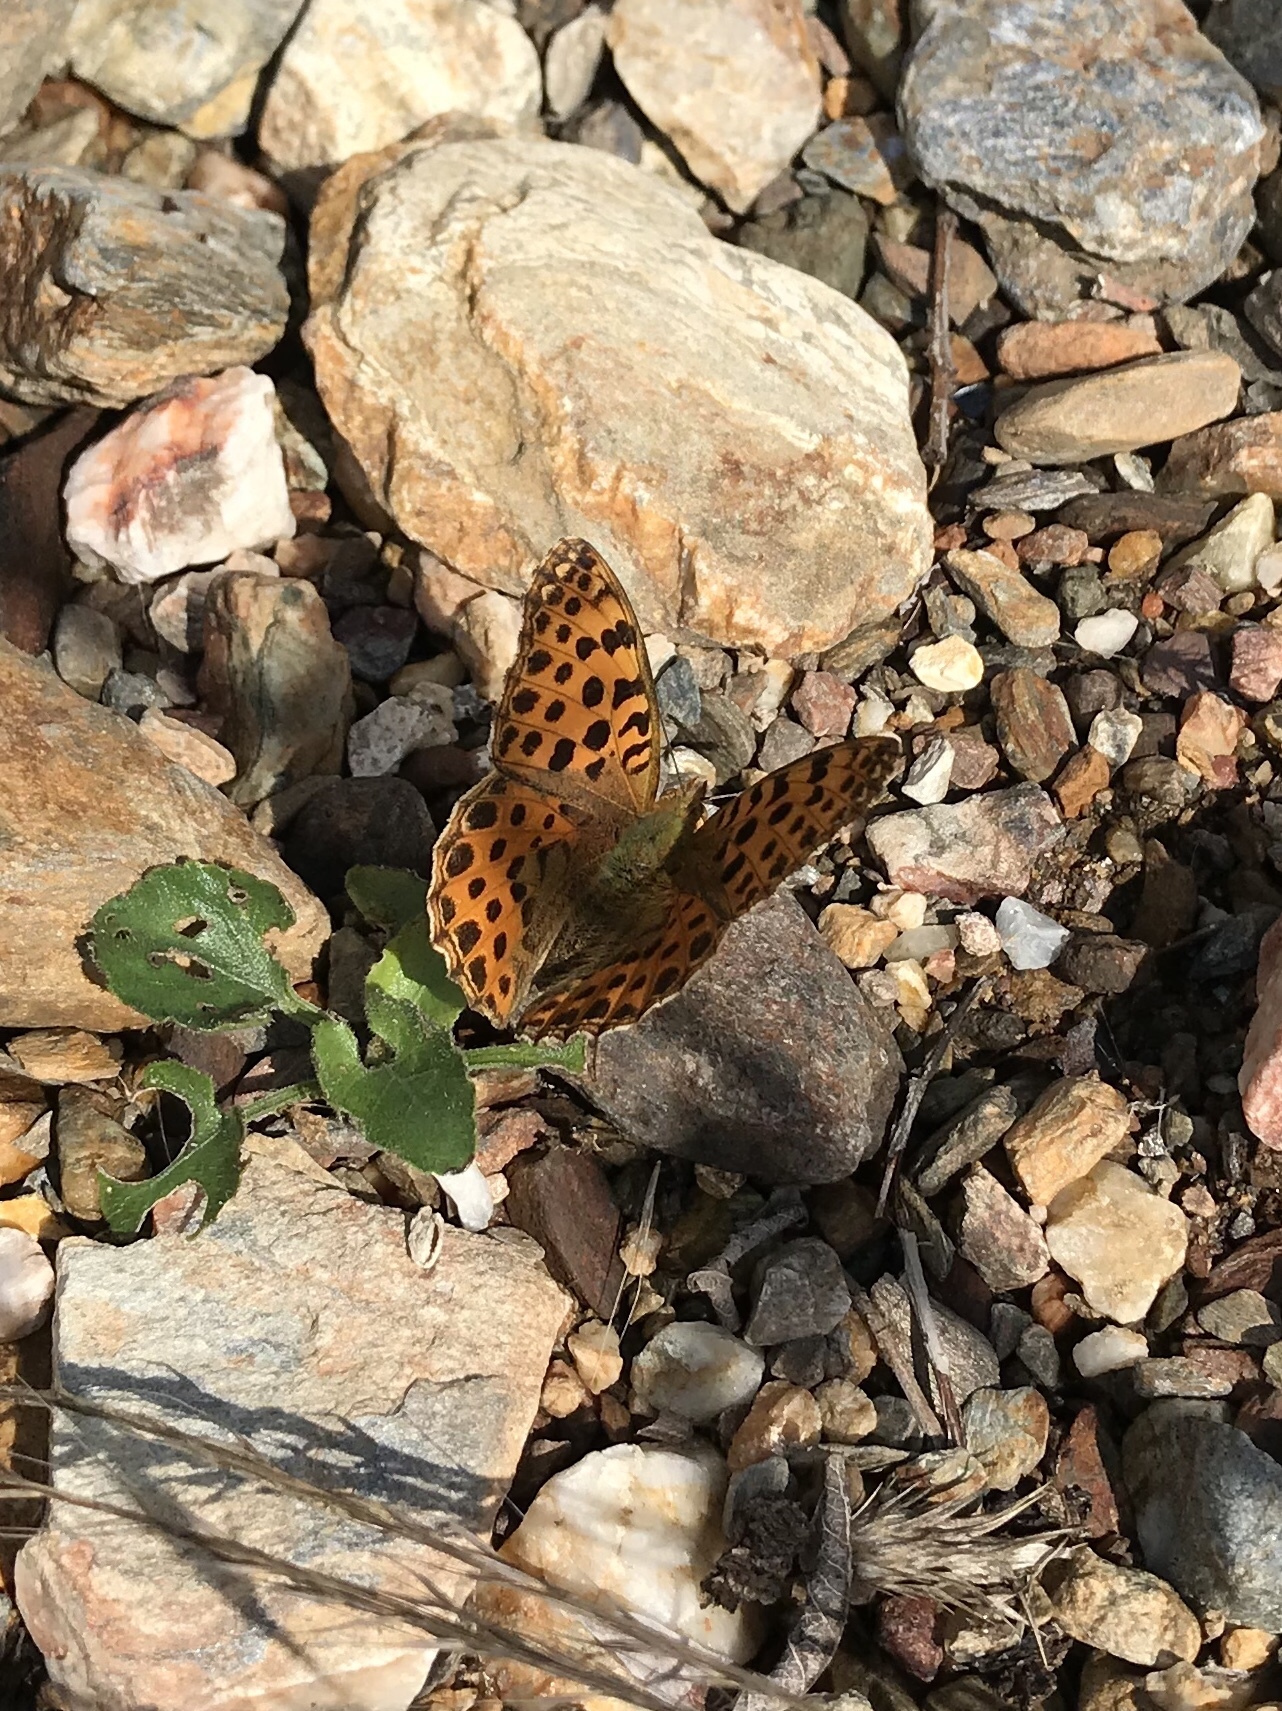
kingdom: Animalia
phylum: Arthropoda
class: Insecta
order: Lepidoptera
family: Nymphalidae
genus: Issoria
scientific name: Issoria lathonia
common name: Queen of spain fritillary
